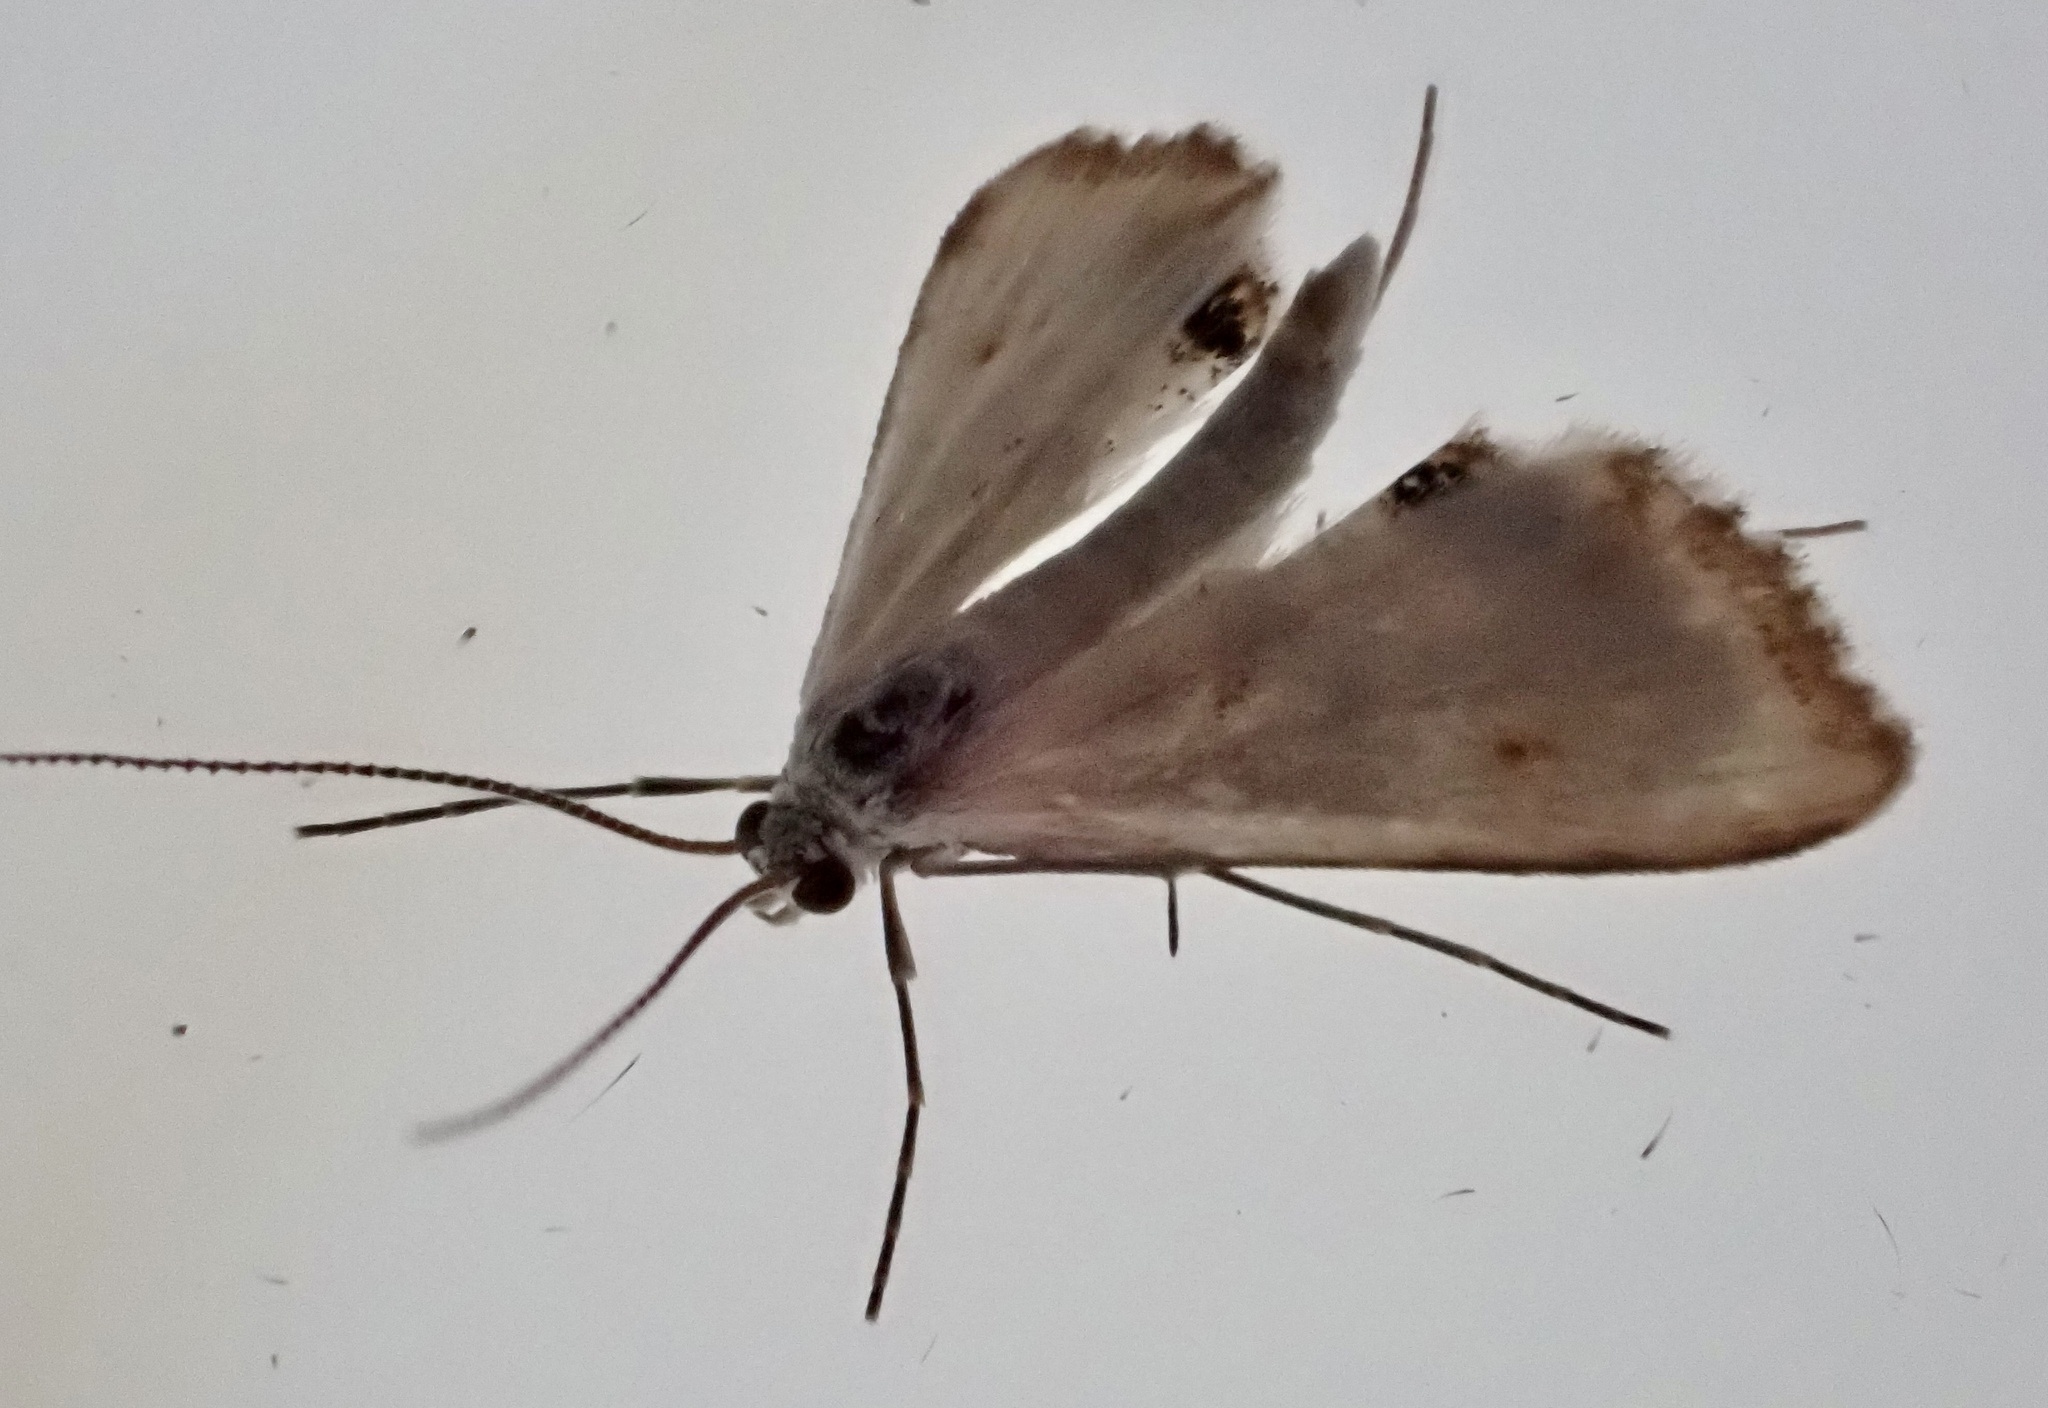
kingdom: Animalia
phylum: Arthropoda
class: Insecta
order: Lepidoptera
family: Crambidae
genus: Cataclysta
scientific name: Cataclysta lemnata
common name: Small china-mark
